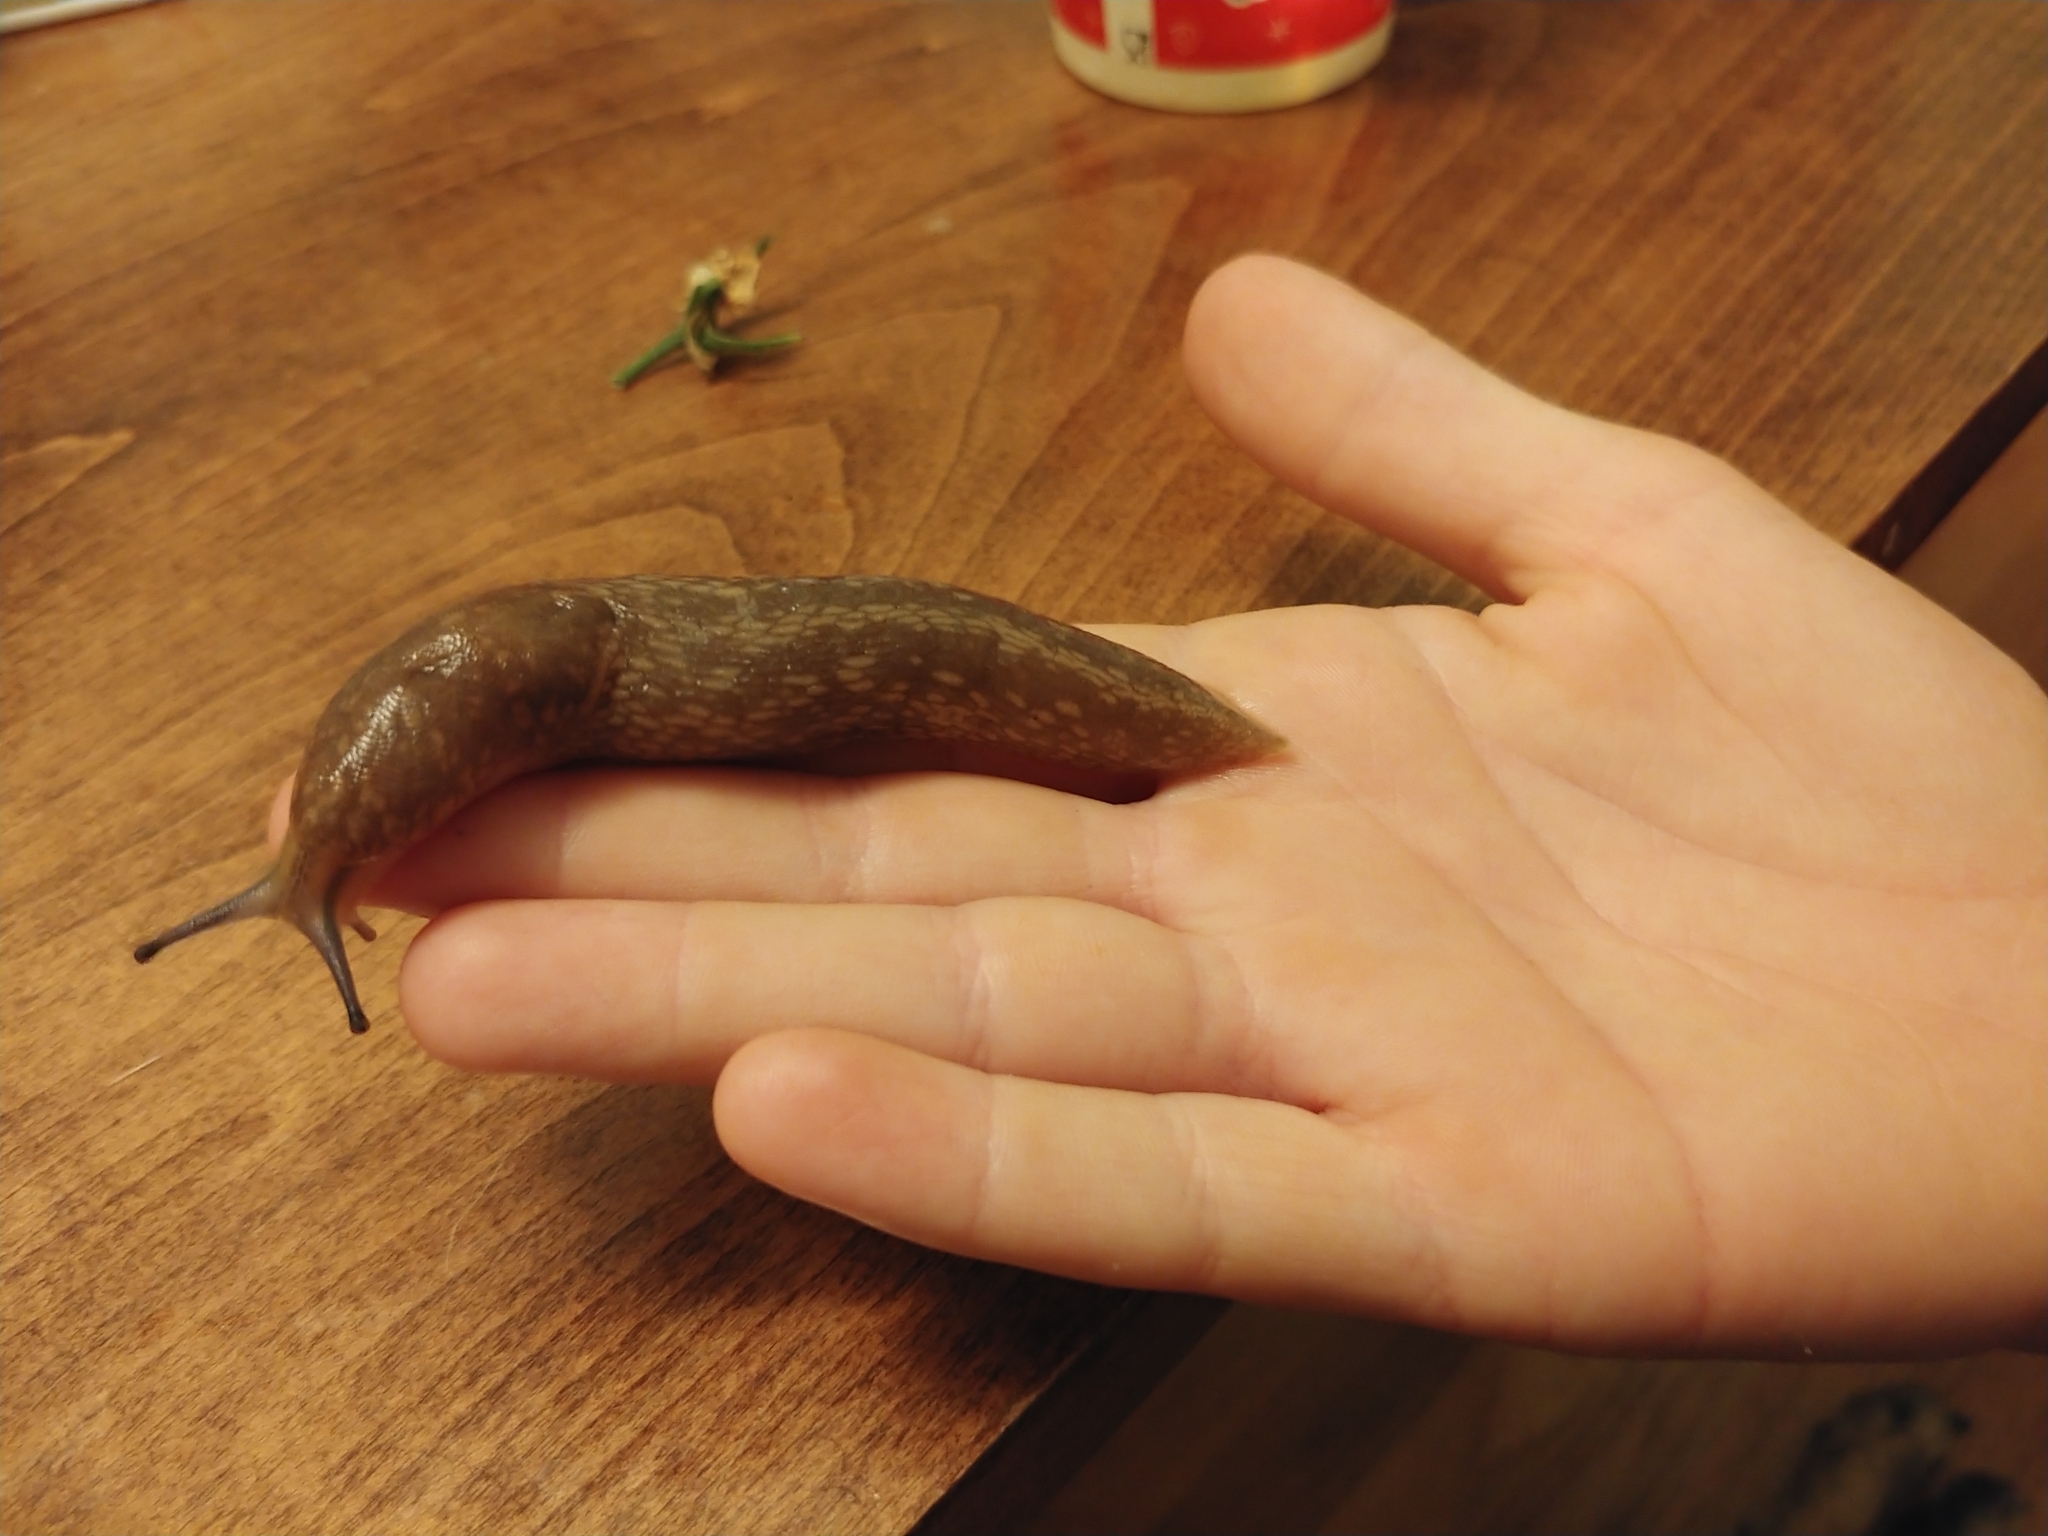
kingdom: Animalia
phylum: Mollusca
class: Gastropoda
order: Stylommatophora
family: Limacidae
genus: Limacus
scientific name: Limacus flavus
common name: Yellow gardenslug
